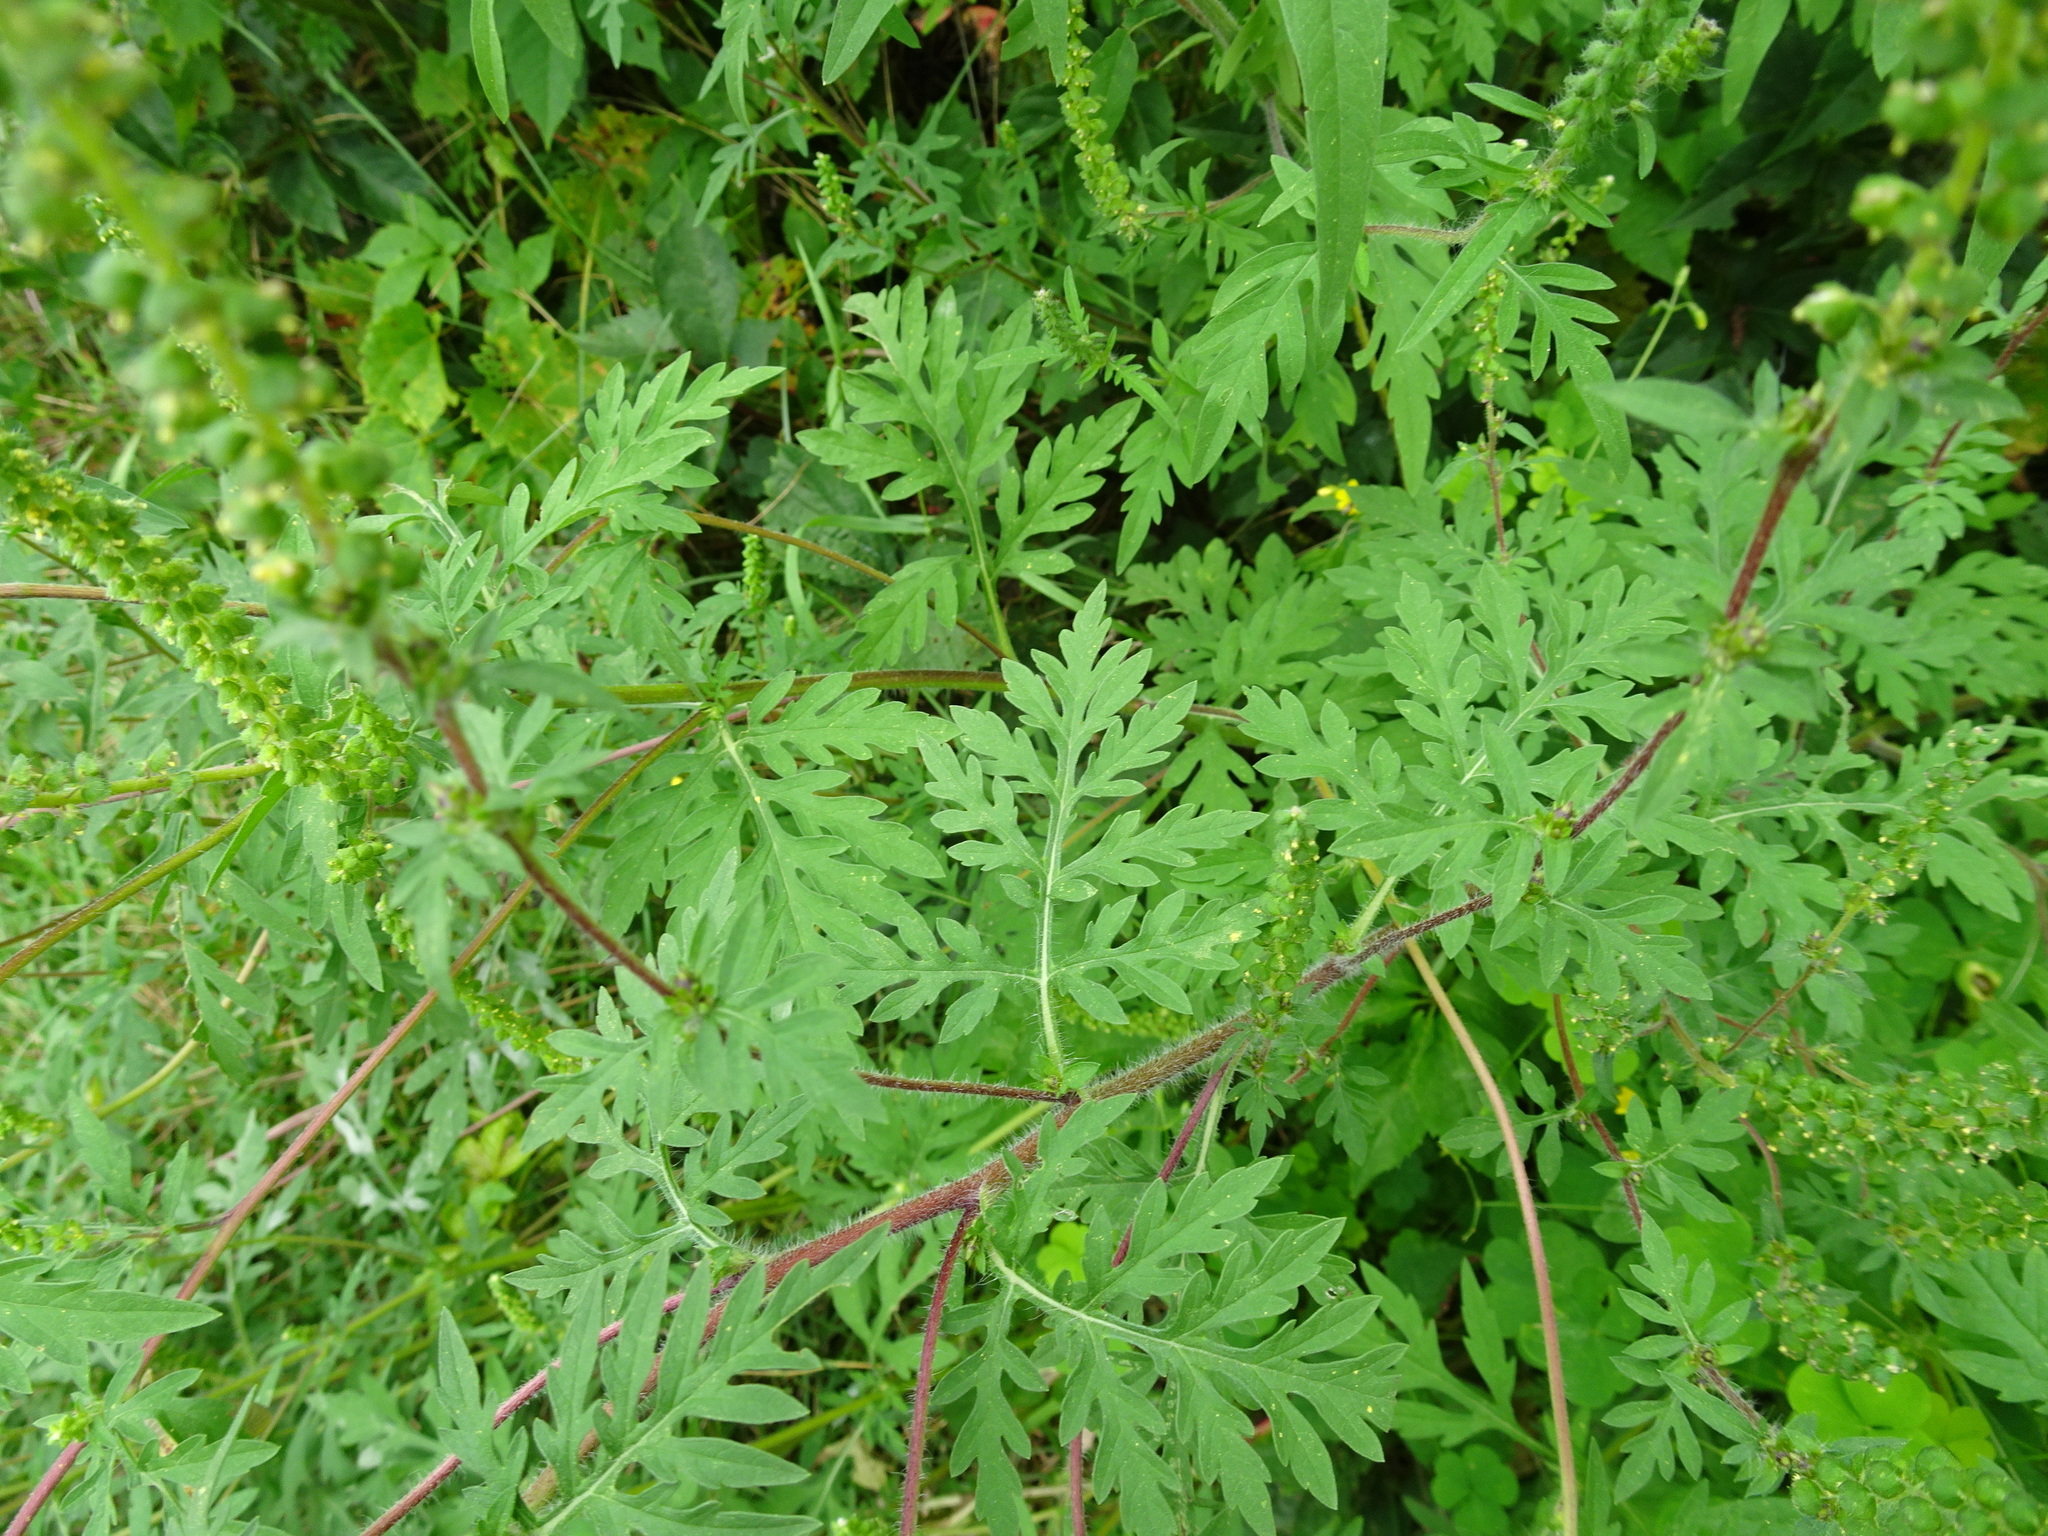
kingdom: Plantae
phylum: Tracheophyta
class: Magnoliopsida
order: Asterales
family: Asteraceae
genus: Ambrosia
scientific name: Ambrosia artemisiifolia
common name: Annual ragweed
